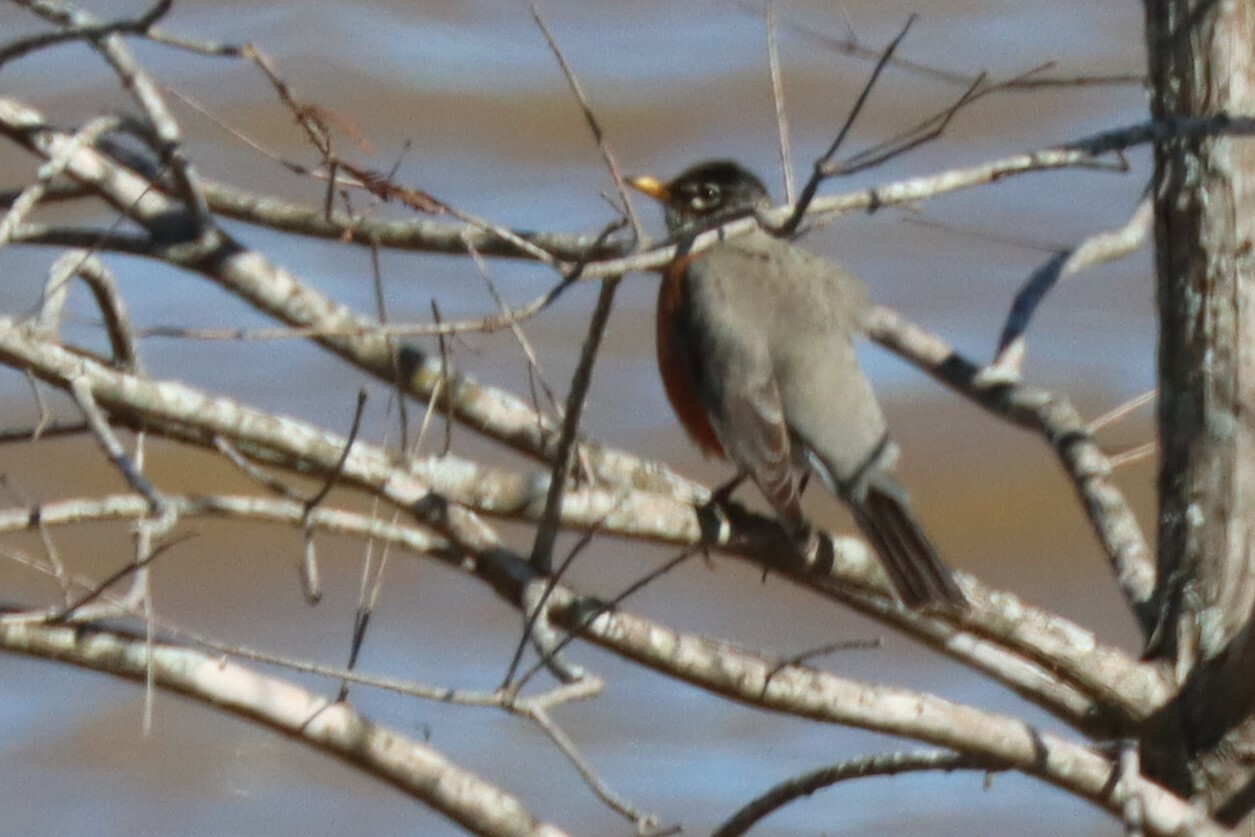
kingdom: Animalia
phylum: Chordata
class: Aves
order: Passeriformes
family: Turdidae
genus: Turdus
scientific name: Turdus migratorius
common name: American robin
